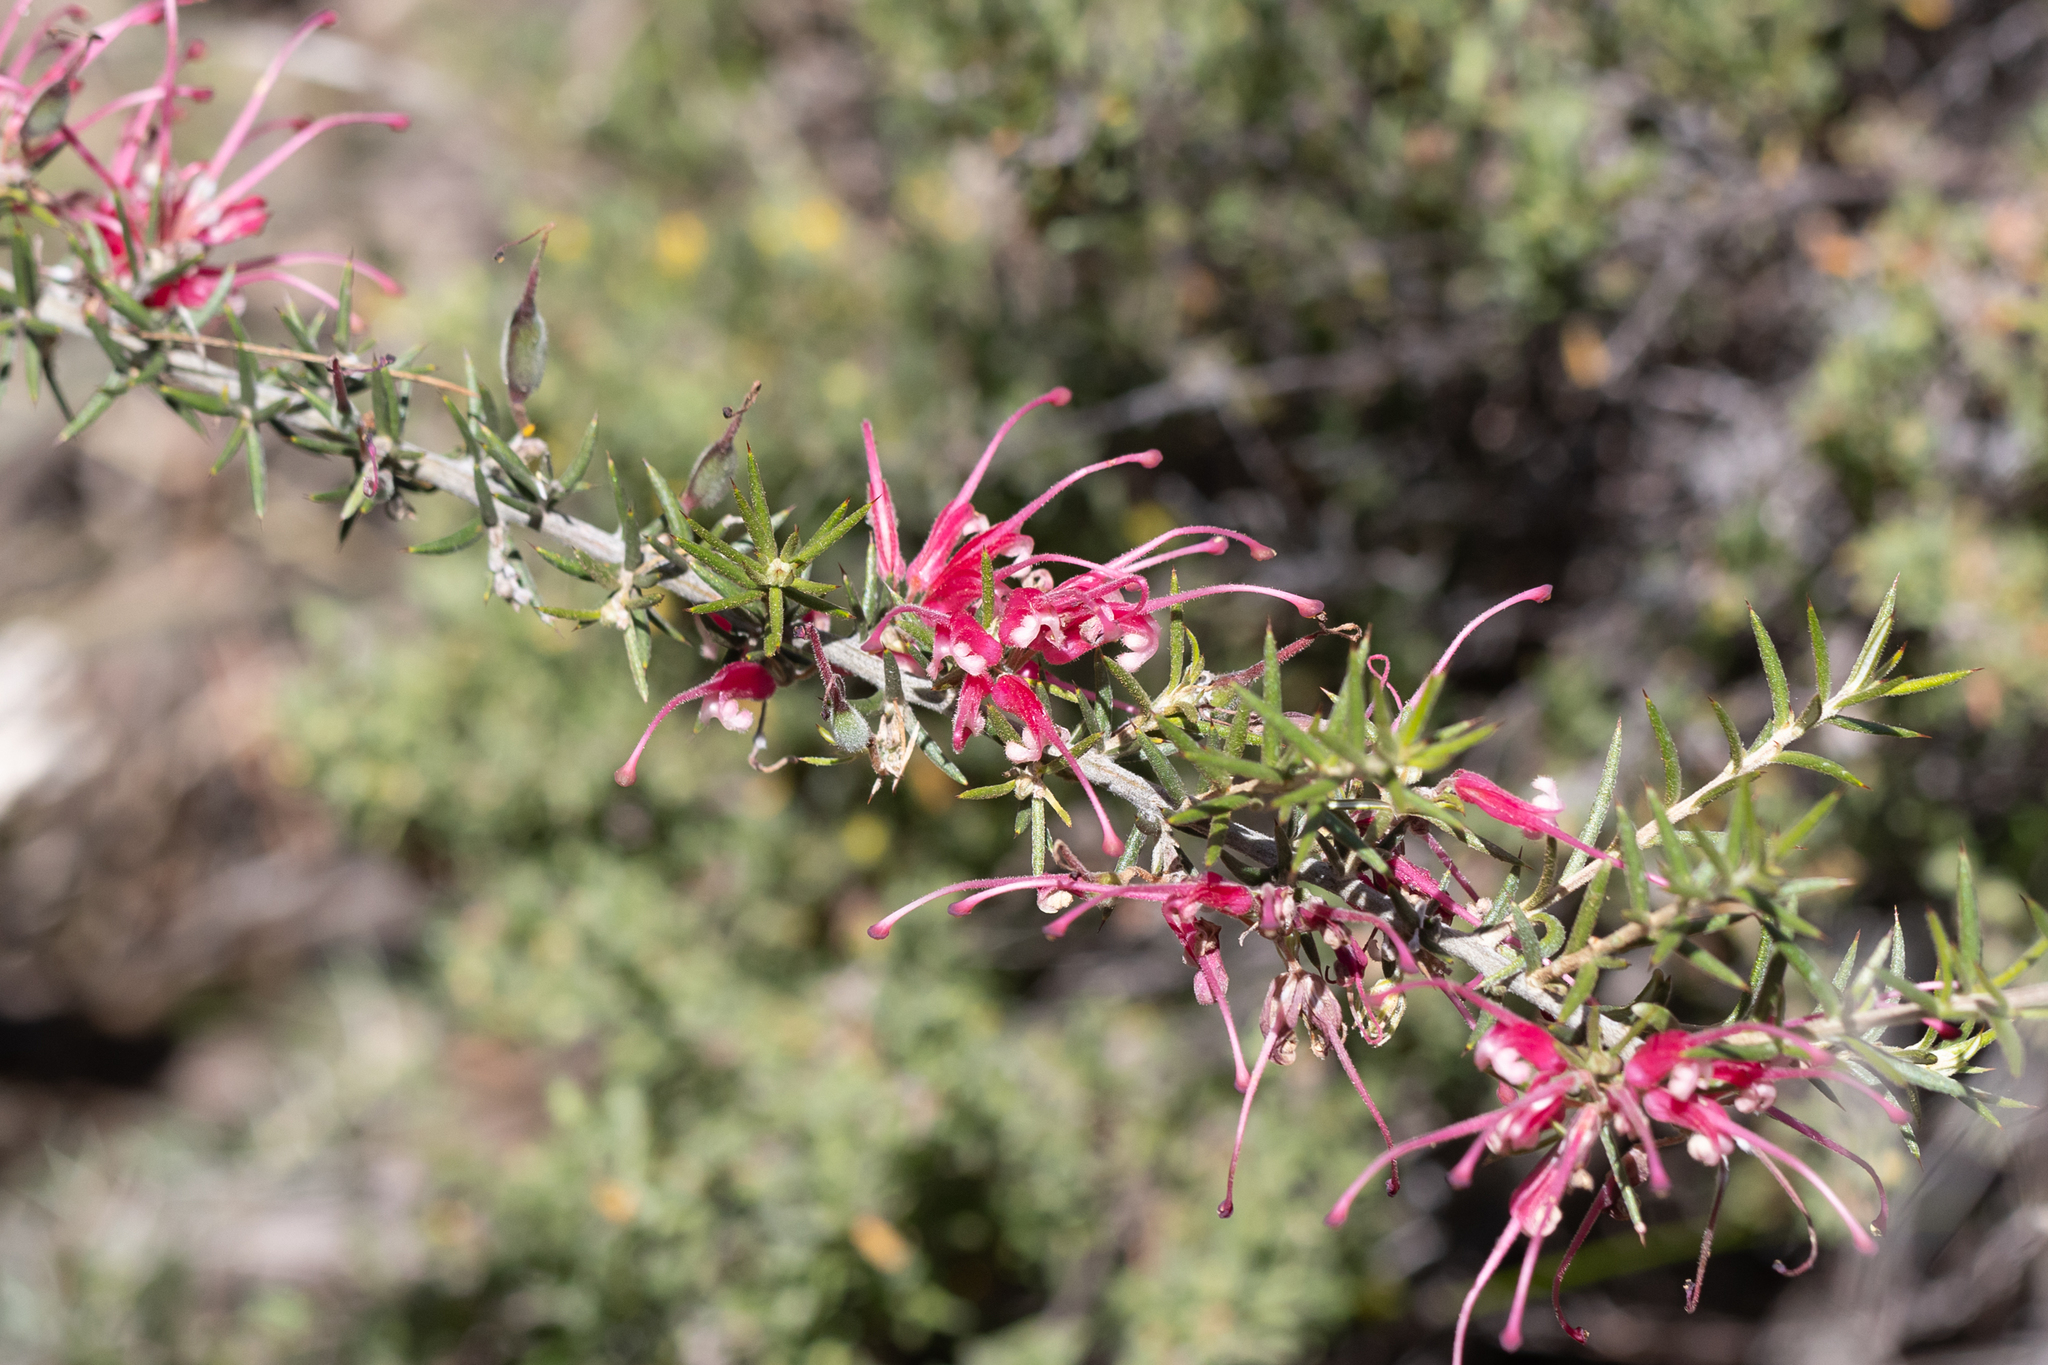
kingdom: Plantae
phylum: Tracheophyta
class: Magnoliopsida
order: Proteales
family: Proteaceae
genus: Grevillea
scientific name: Grevillea lavandulacea
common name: Lavender grevillea
